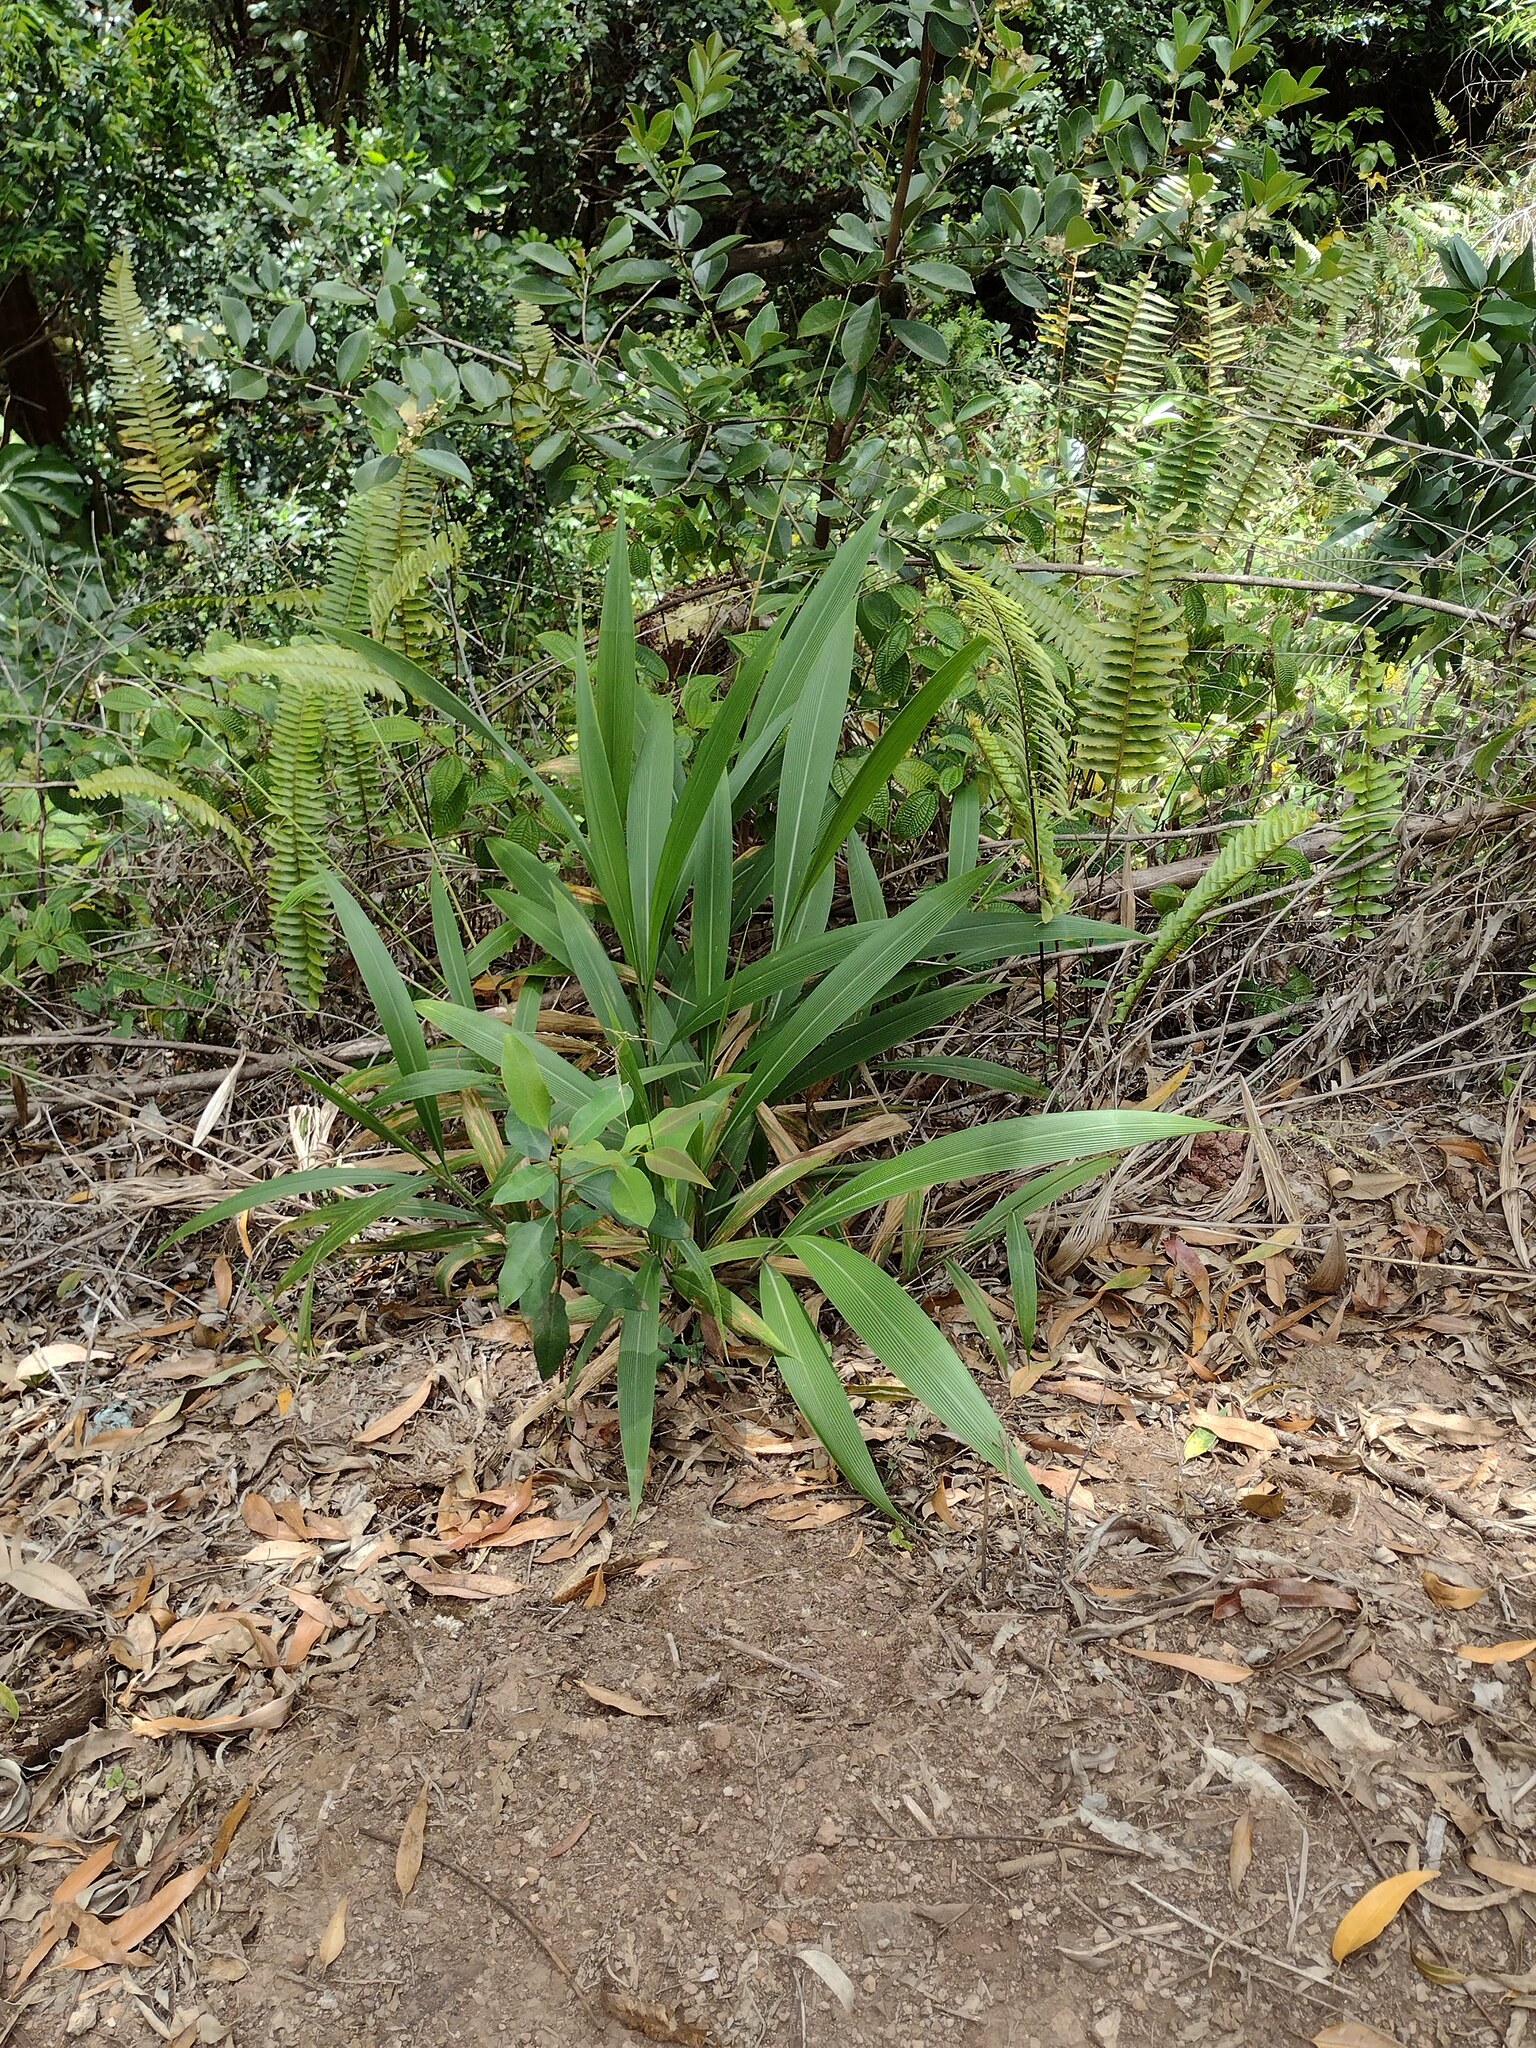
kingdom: Plantae
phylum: Tracheophyta
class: Liliopsida
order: Poales
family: Poaceae
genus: Setaria
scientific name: Setaria palmifolia
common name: Broadleaved bristlegrass
